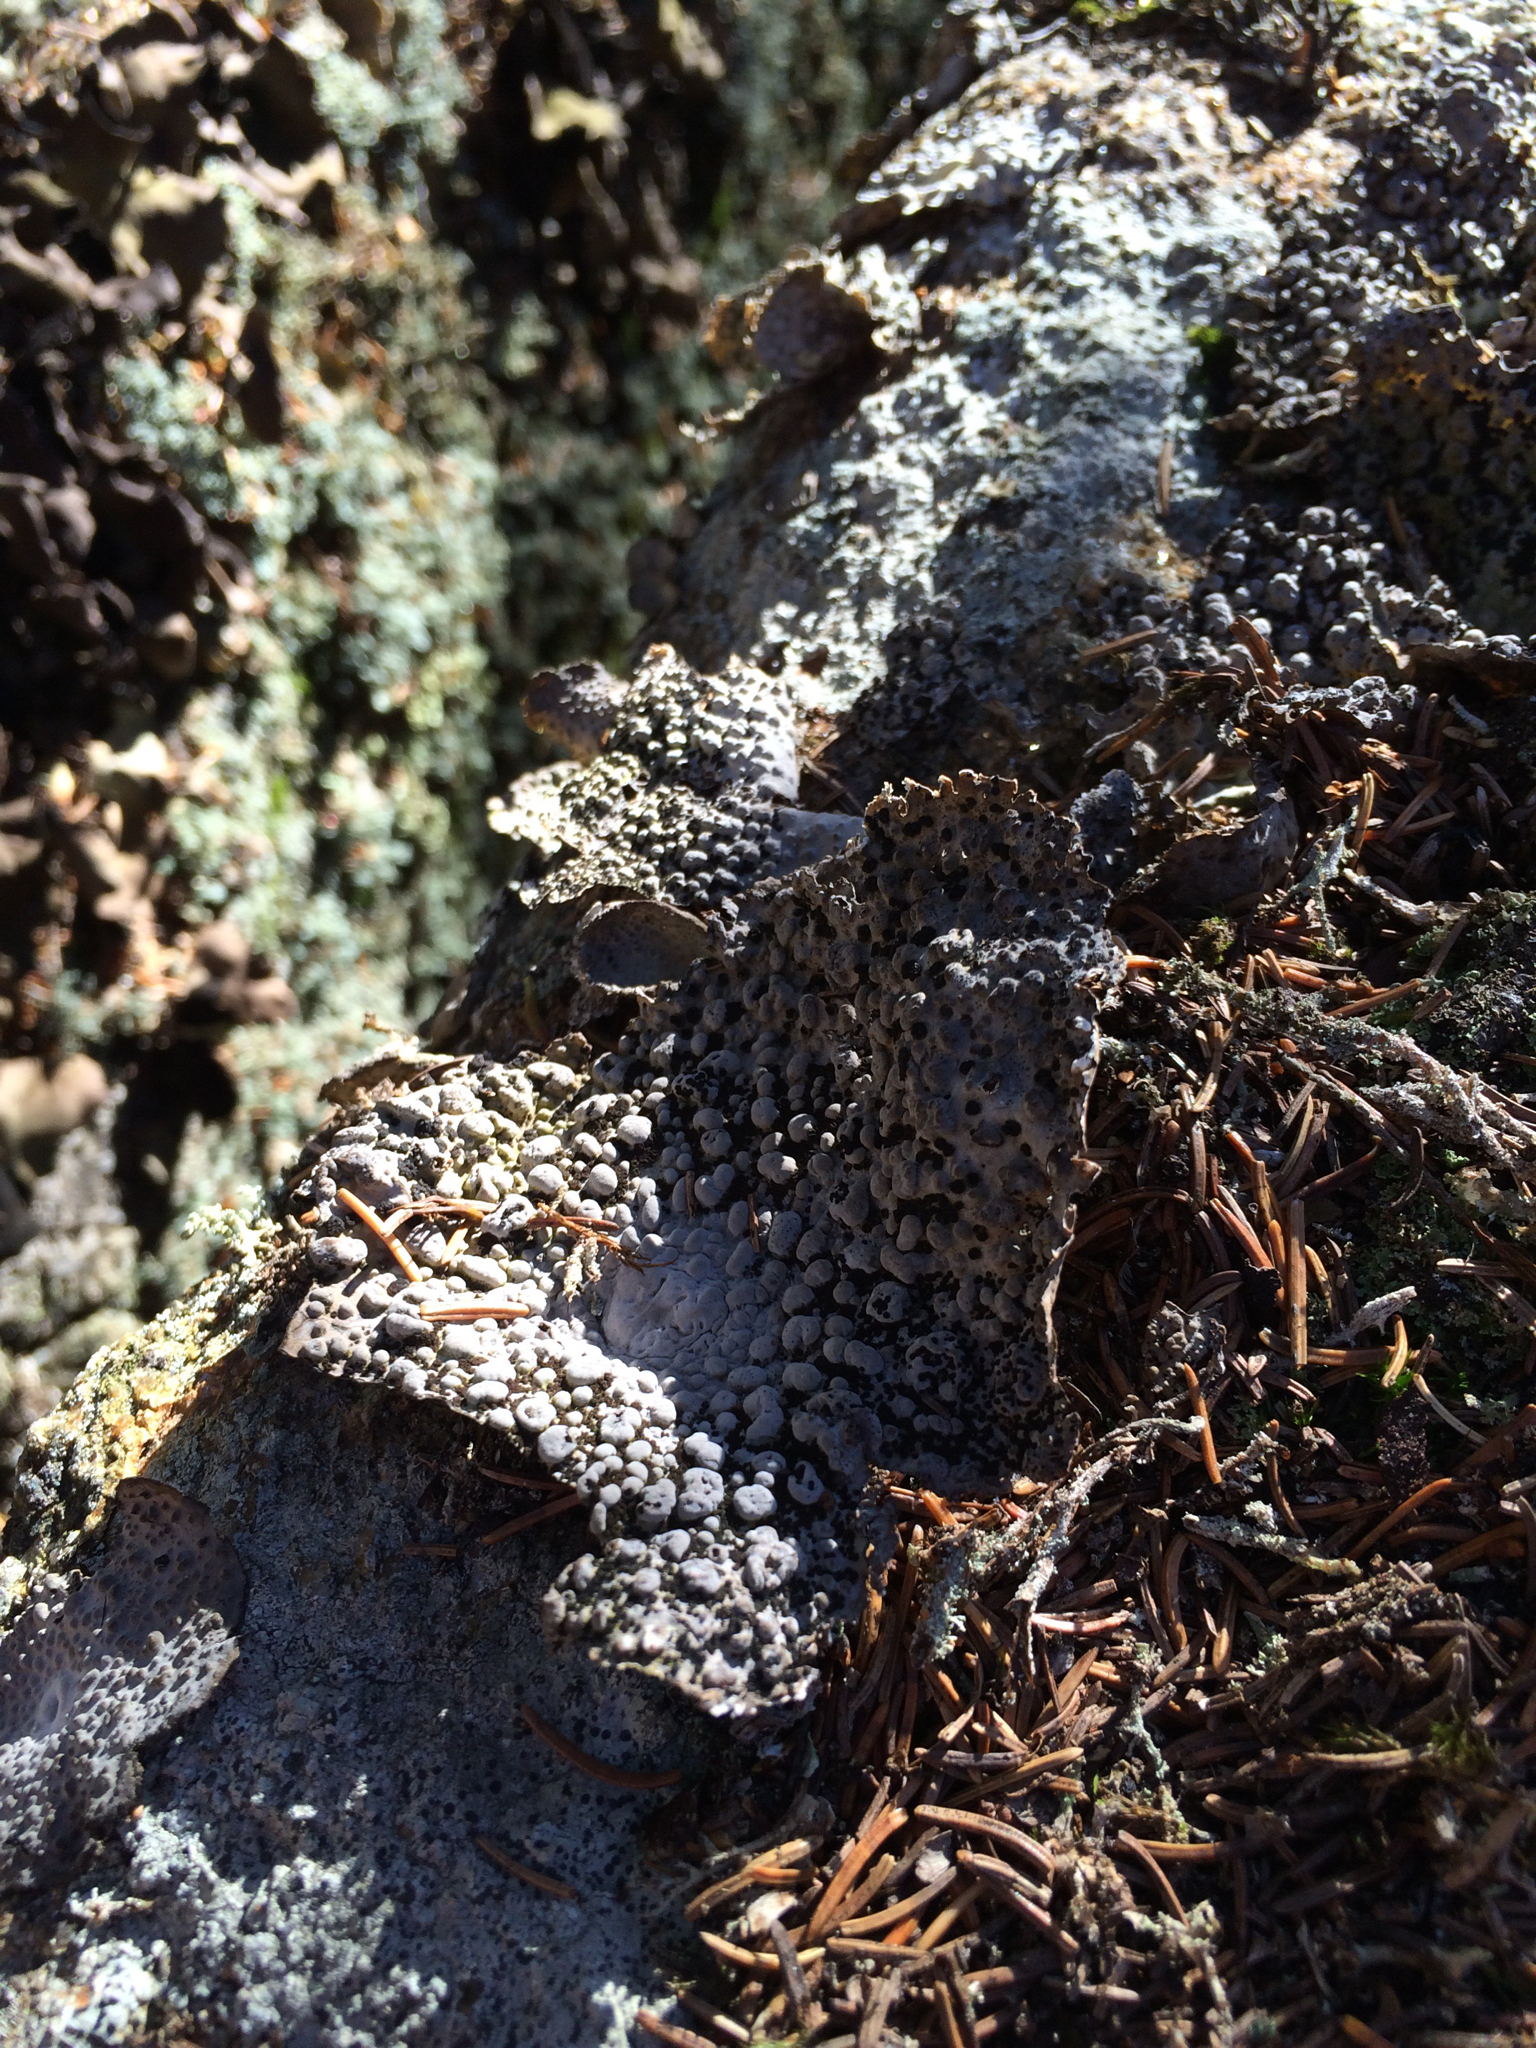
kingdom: Fungi
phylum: Ascomycota
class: Lecanoromycetes
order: Umbilicariales
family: Umbilicariaceae
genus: Lasallia
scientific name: Lasallia papulosa
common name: Common toadskin lichen
